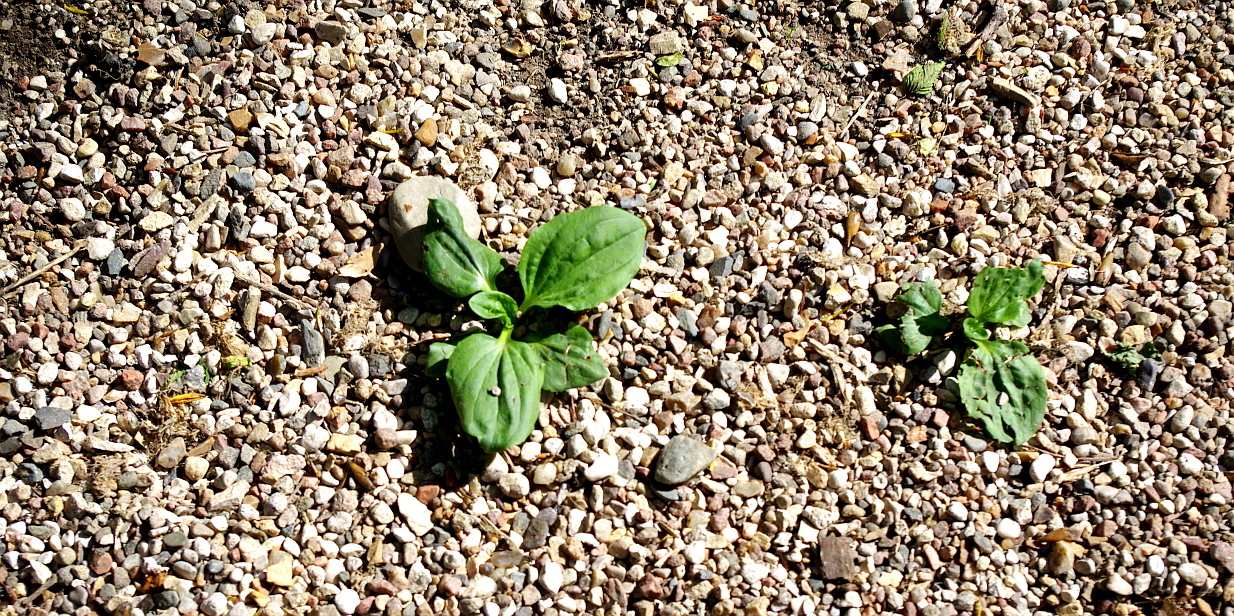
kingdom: Plantae
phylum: Tracheophyta
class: Magnoliopsida
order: Lamiales
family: Plantaginaceae
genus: Plantago
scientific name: Plantago major
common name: Common plantain
